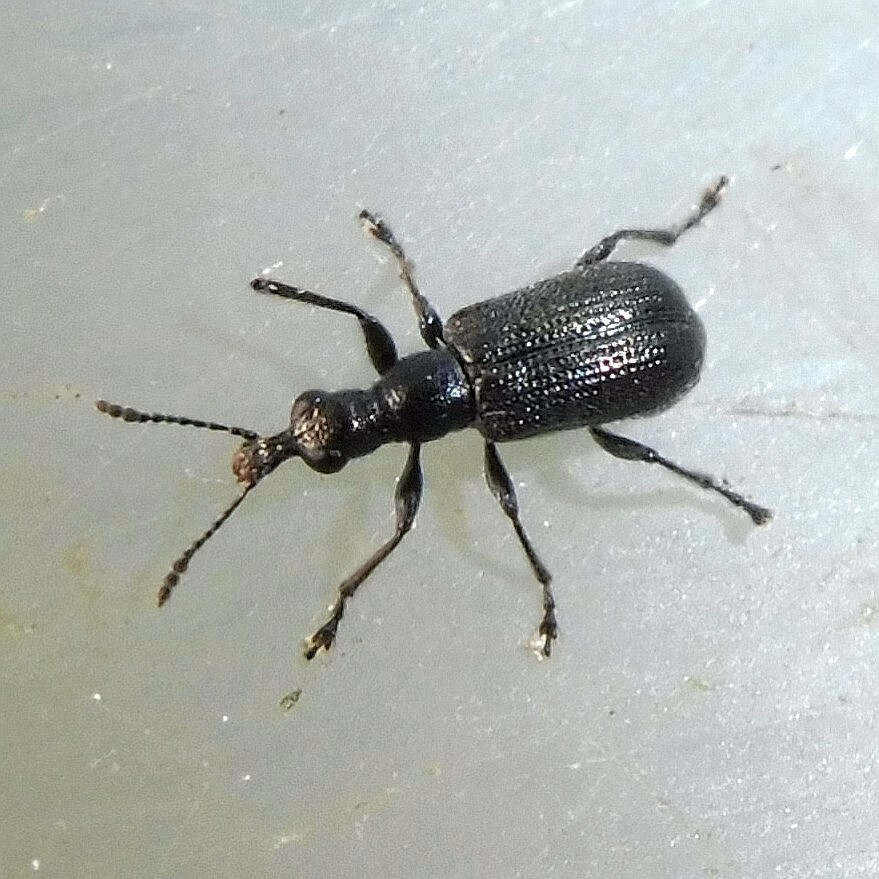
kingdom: Animalia
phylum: Arthropoda
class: Insecta
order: Coleoptera
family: Attelabidae
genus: Caenorhinus
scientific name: Caenorhinus mannerheimii
